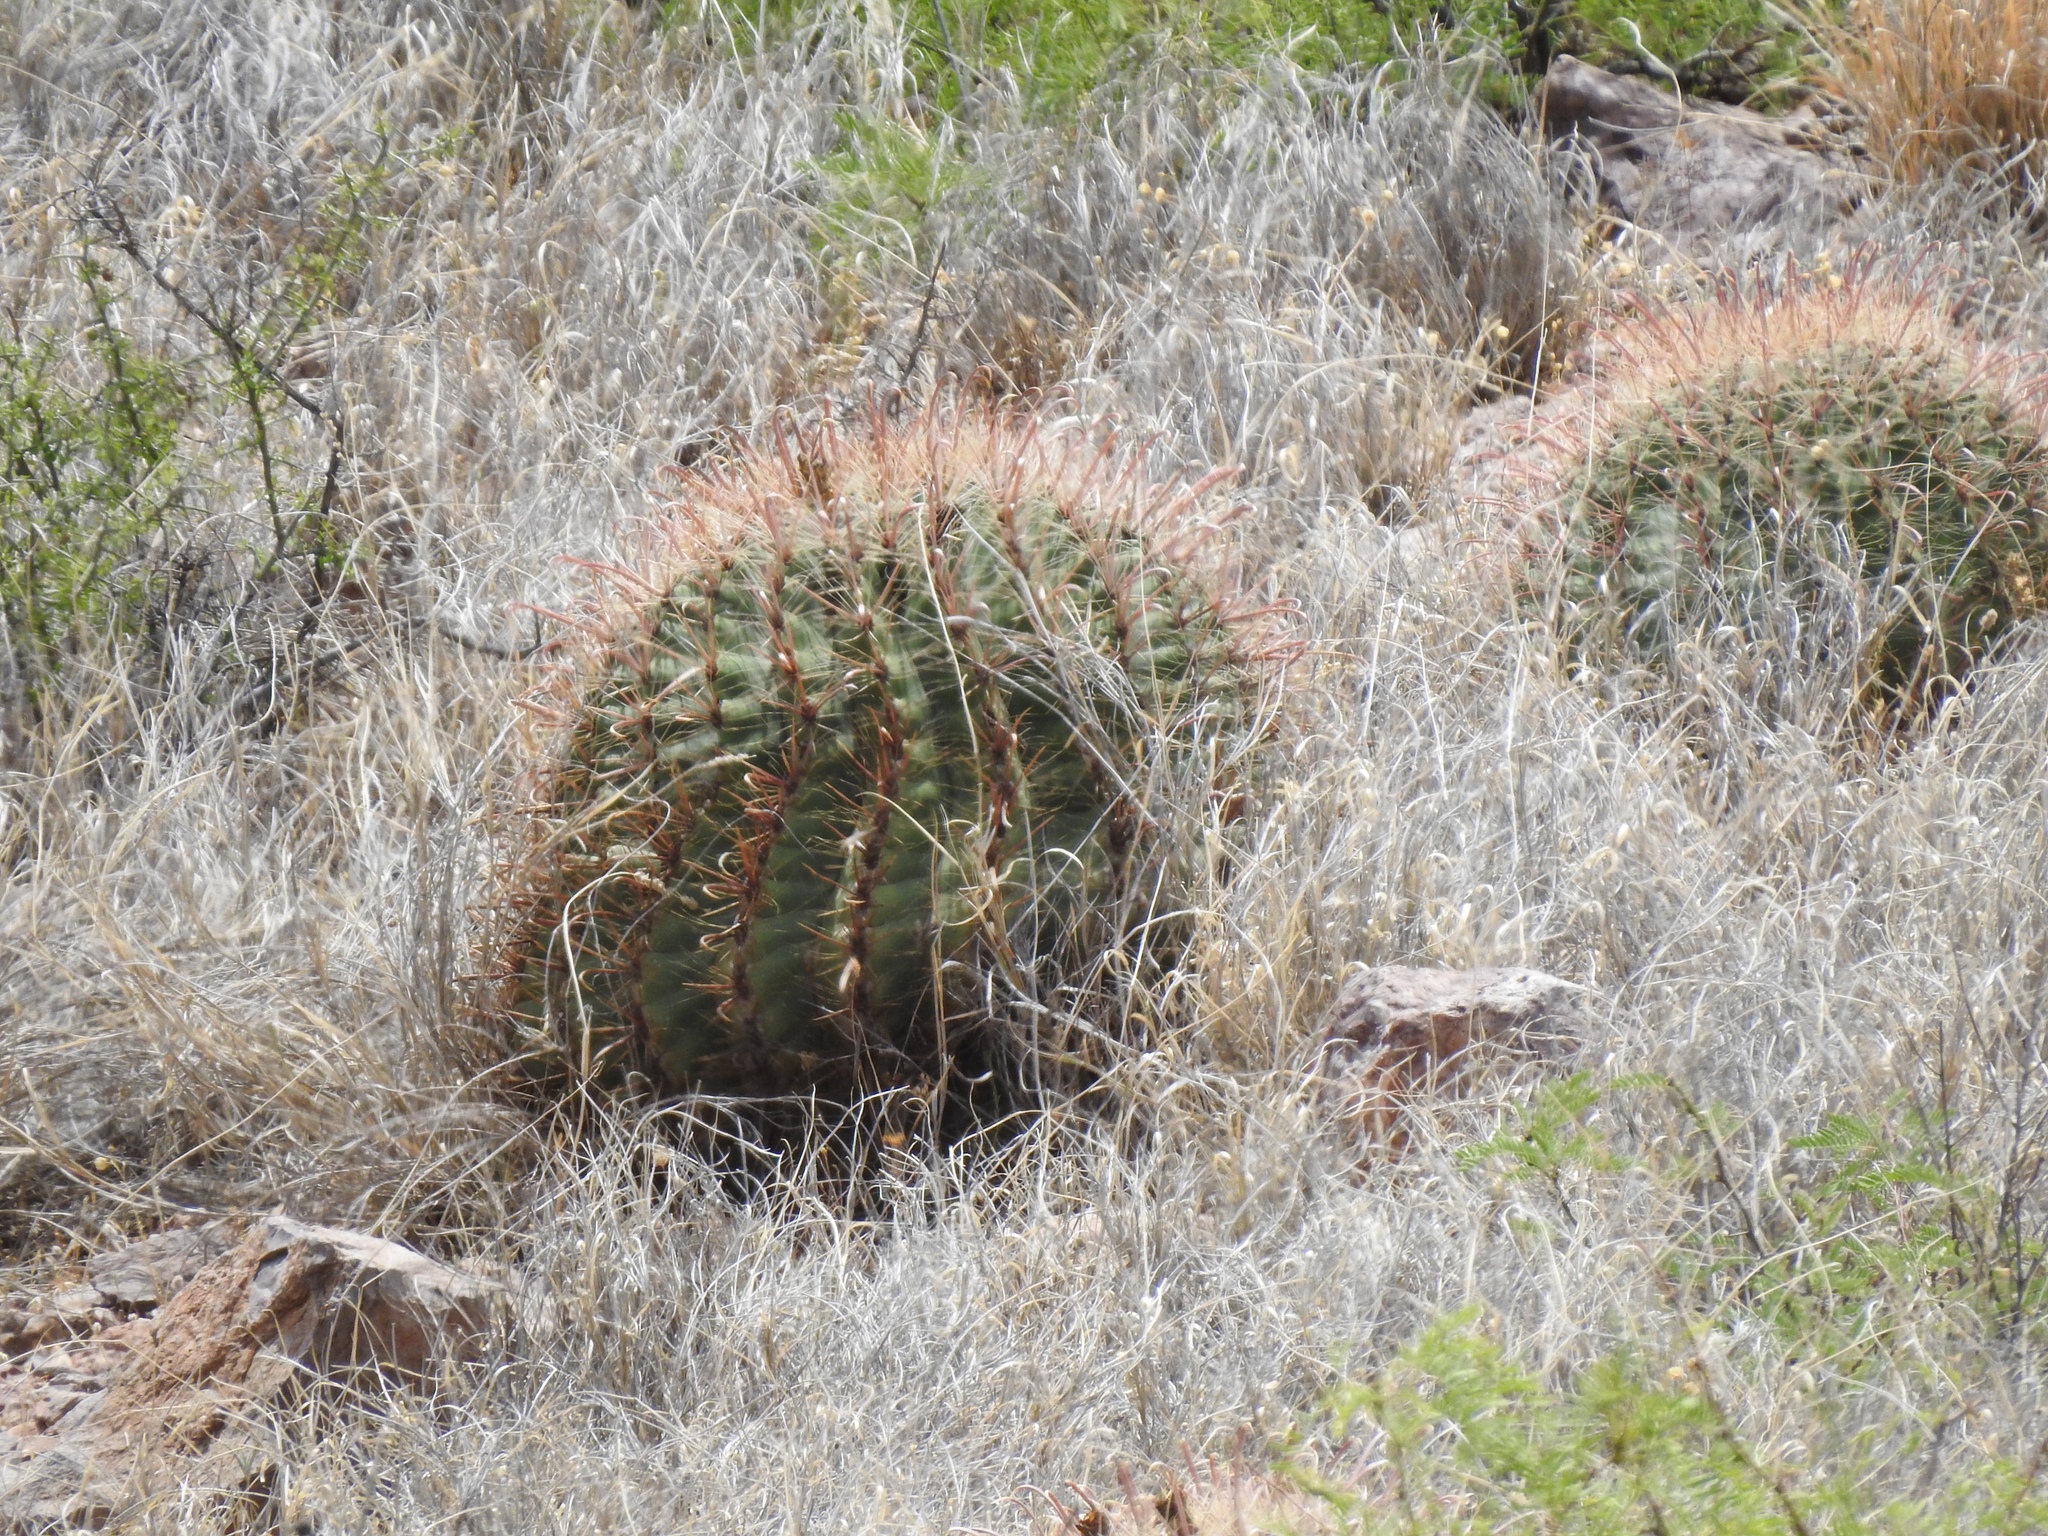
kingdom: Plantae
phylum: Tracheophyta
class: Magnoliopsida
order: Caryophyllales
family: Cactaceae
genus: Ferocactus
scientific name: Ferocactus wislizeni
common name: Candy barrel cactus
